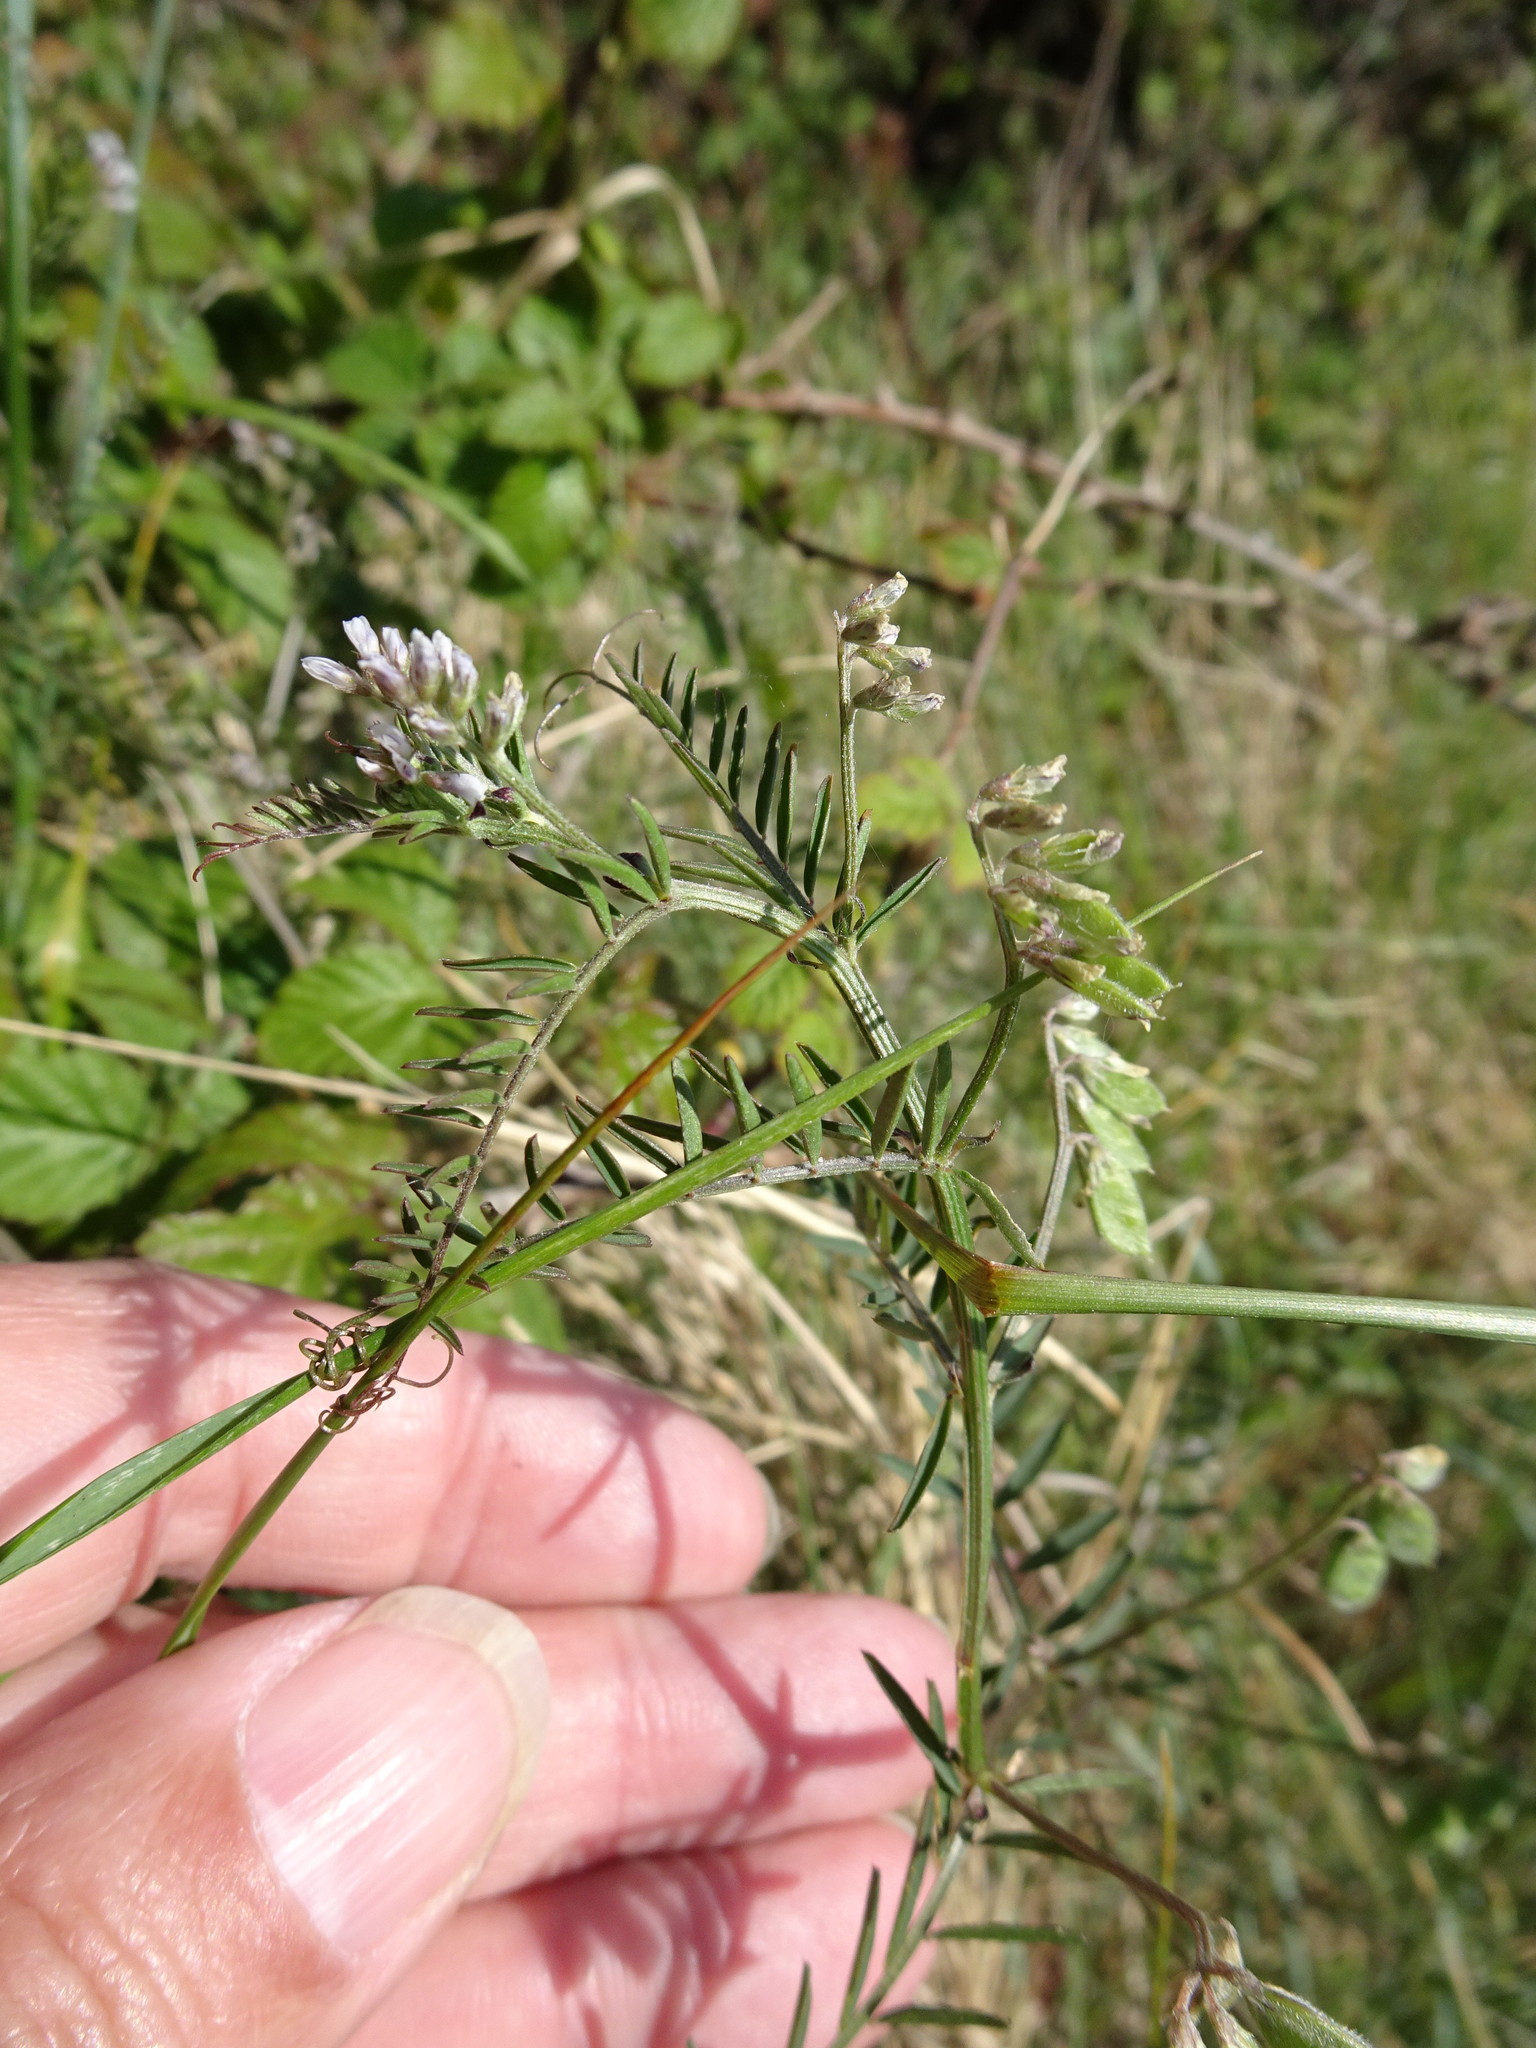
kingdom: Plantae
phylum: Tracheophyta
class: Magnoliopsida
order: Fabales
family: Fabaceae
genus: Vicia
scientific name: Vicia hirsuta
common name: Tiny vetch
